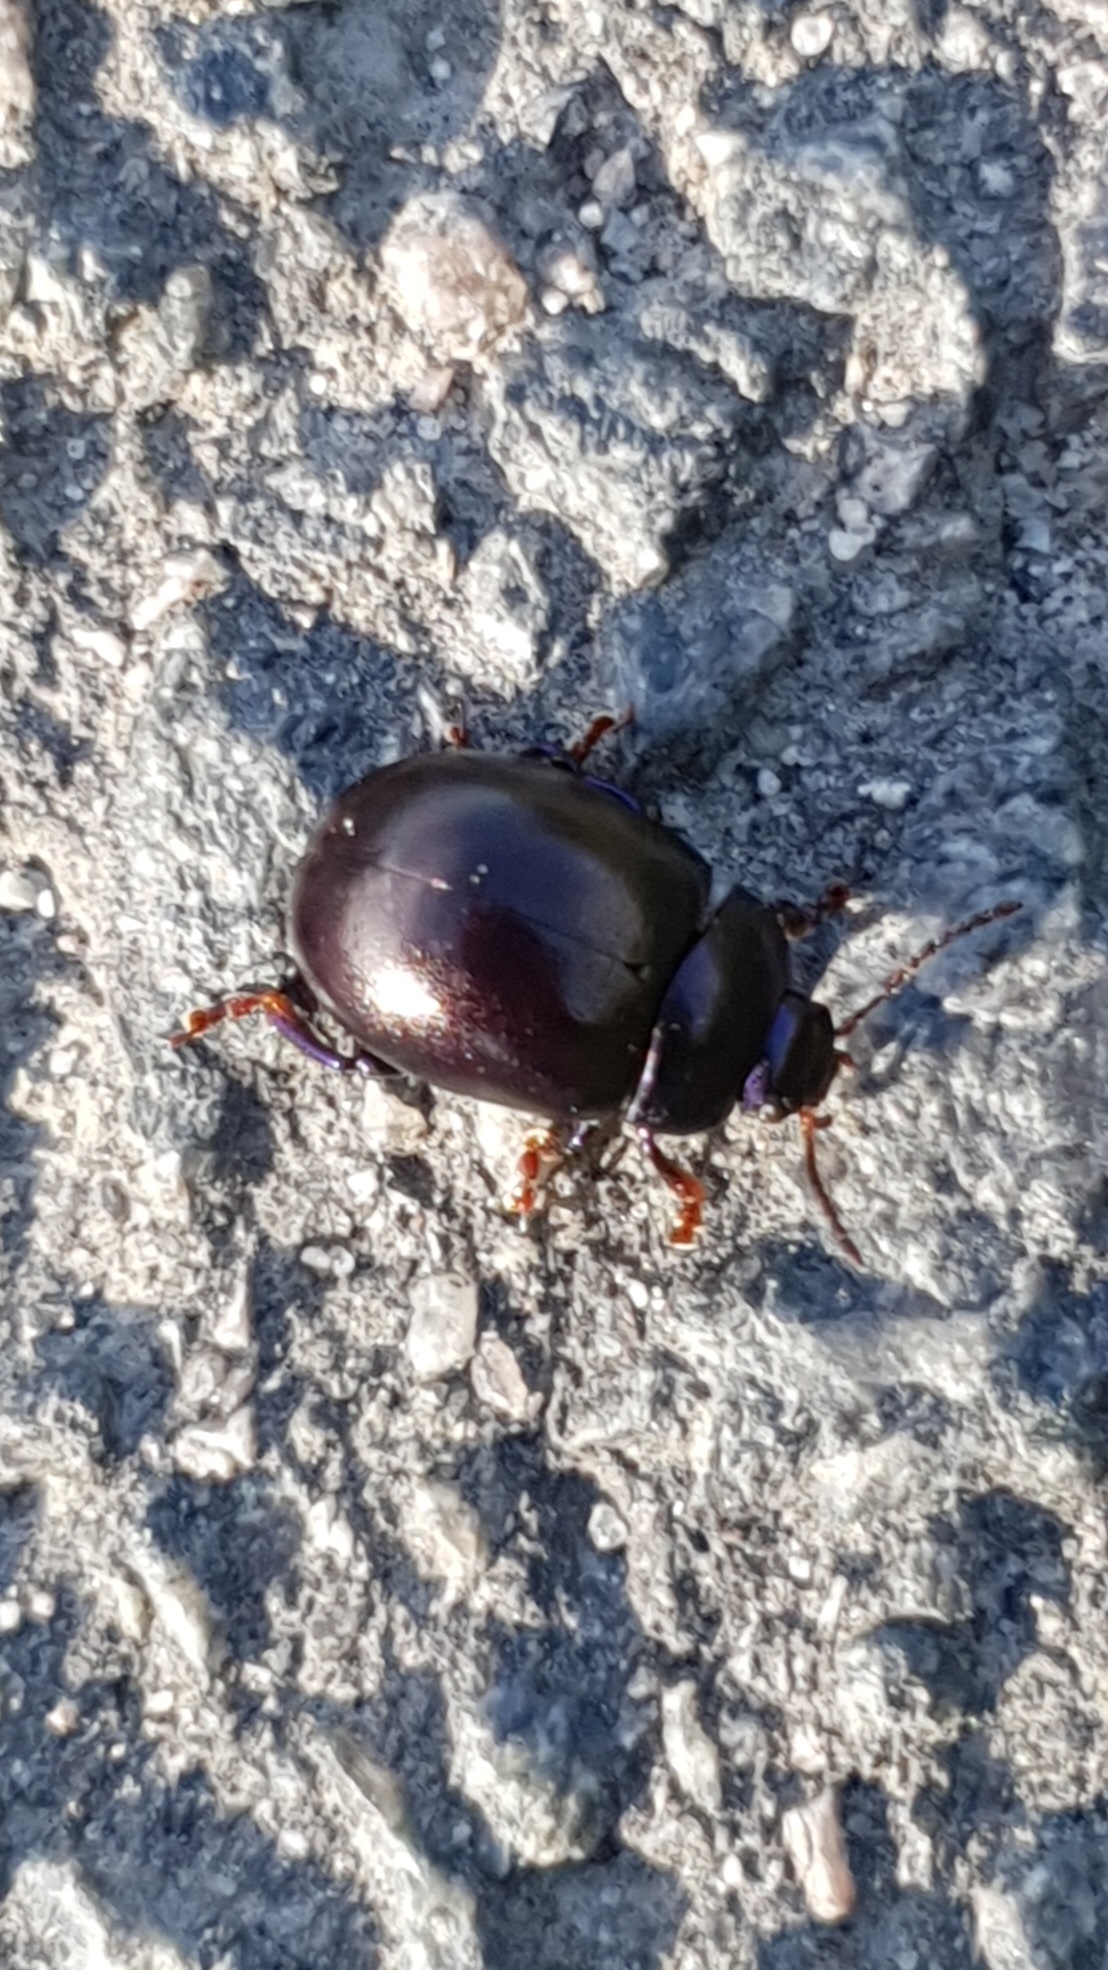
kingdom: Animalia
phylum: Arthropoda
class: Insecta
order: Coleoptera
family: Chrysomelidae
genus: Chrysolina
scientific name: Chrysolina sturmi
